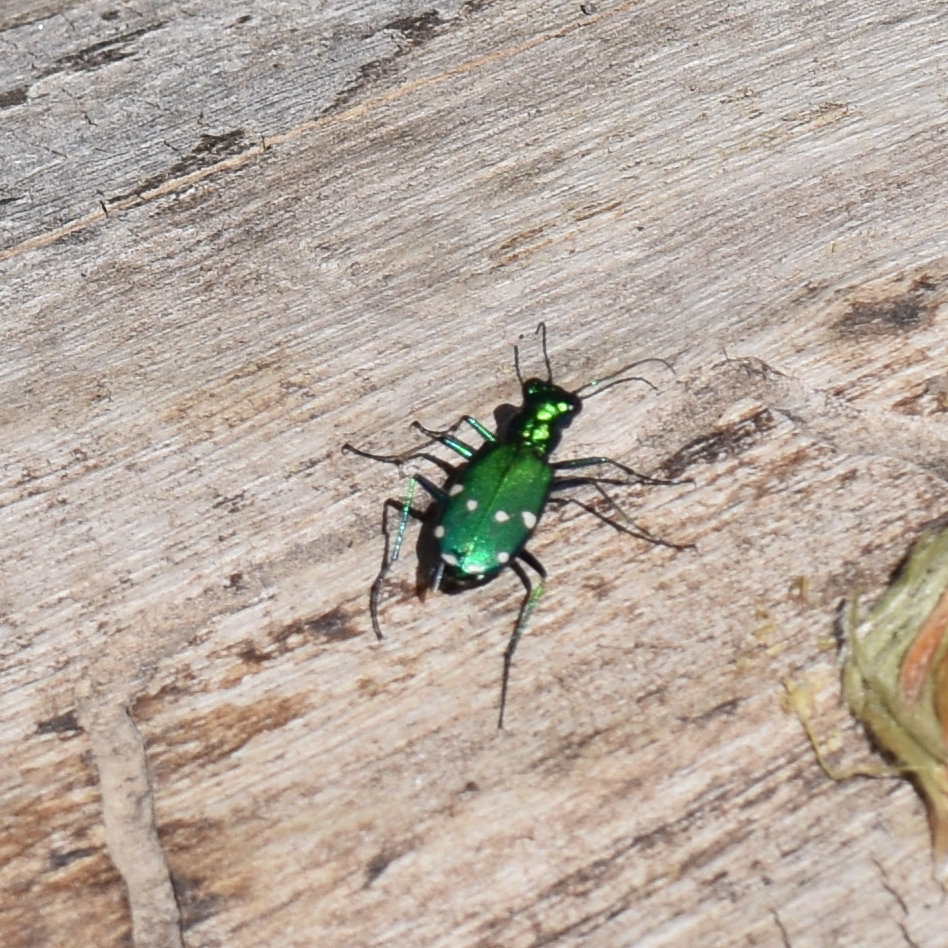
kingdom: Animalia
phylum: Arthropoda
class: Insecta
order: Coleoptera
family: Carabidae
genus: Cicindela
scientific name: Cicindela sexguttata
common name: Six-spotted tiger beetle
